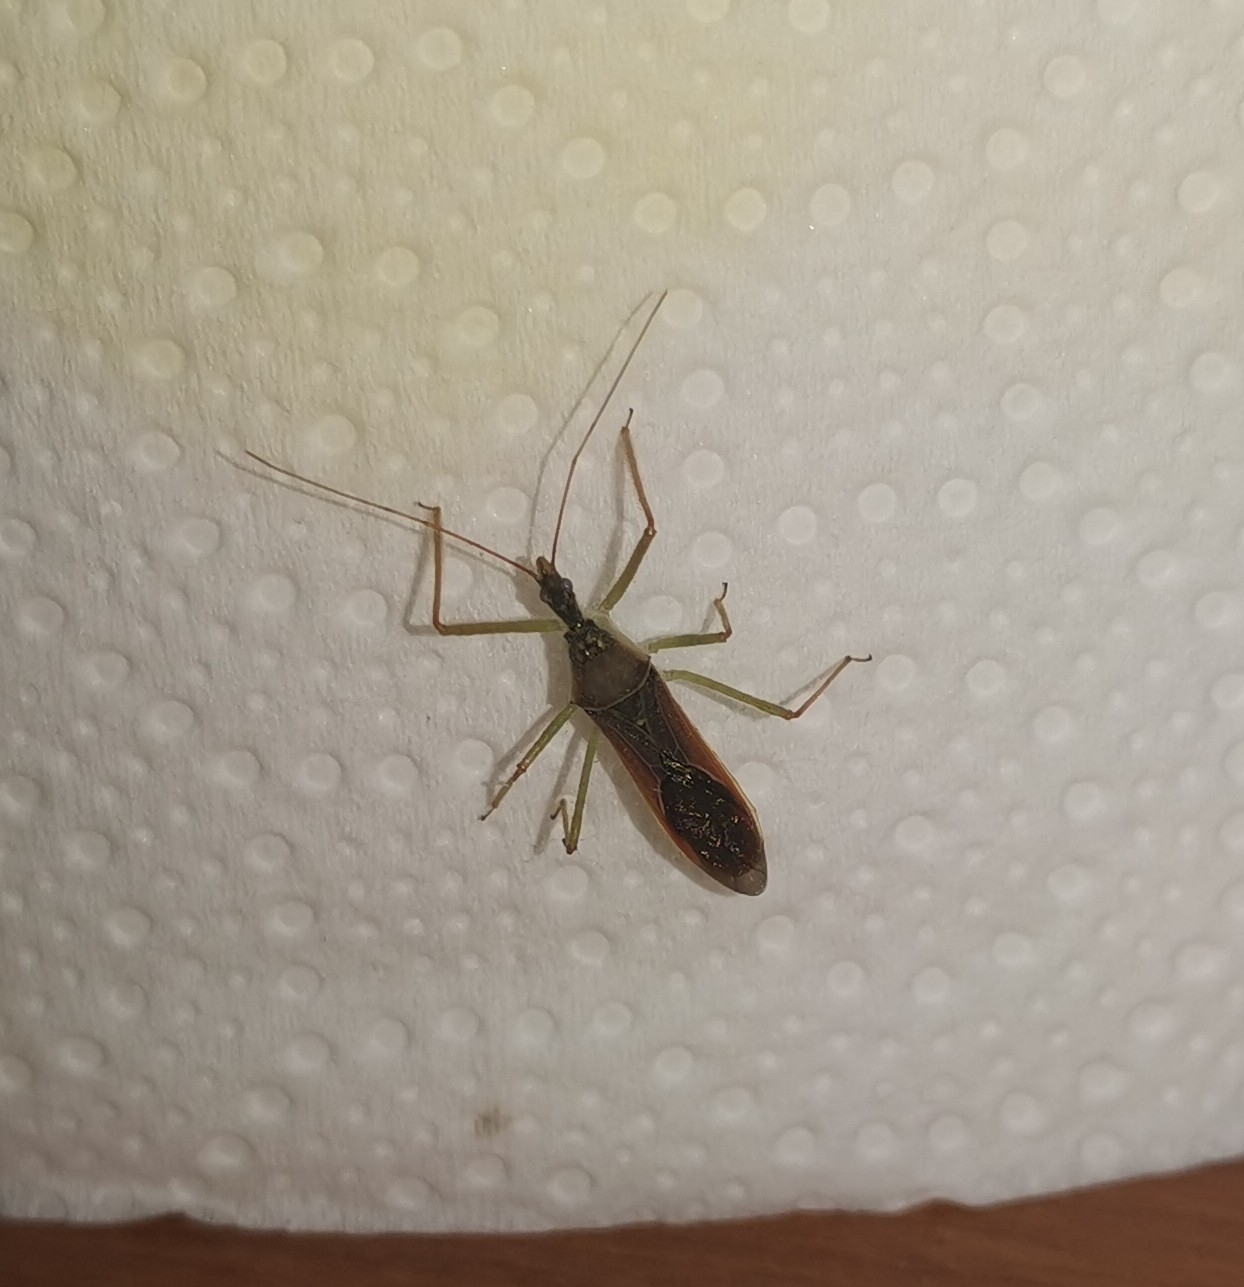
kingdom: Animalia
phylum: Arthropoda
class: Insecta
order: Hemiptera
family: Reduviidae
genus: Zelus
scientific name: Zelus renardii
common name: Assassin bug
